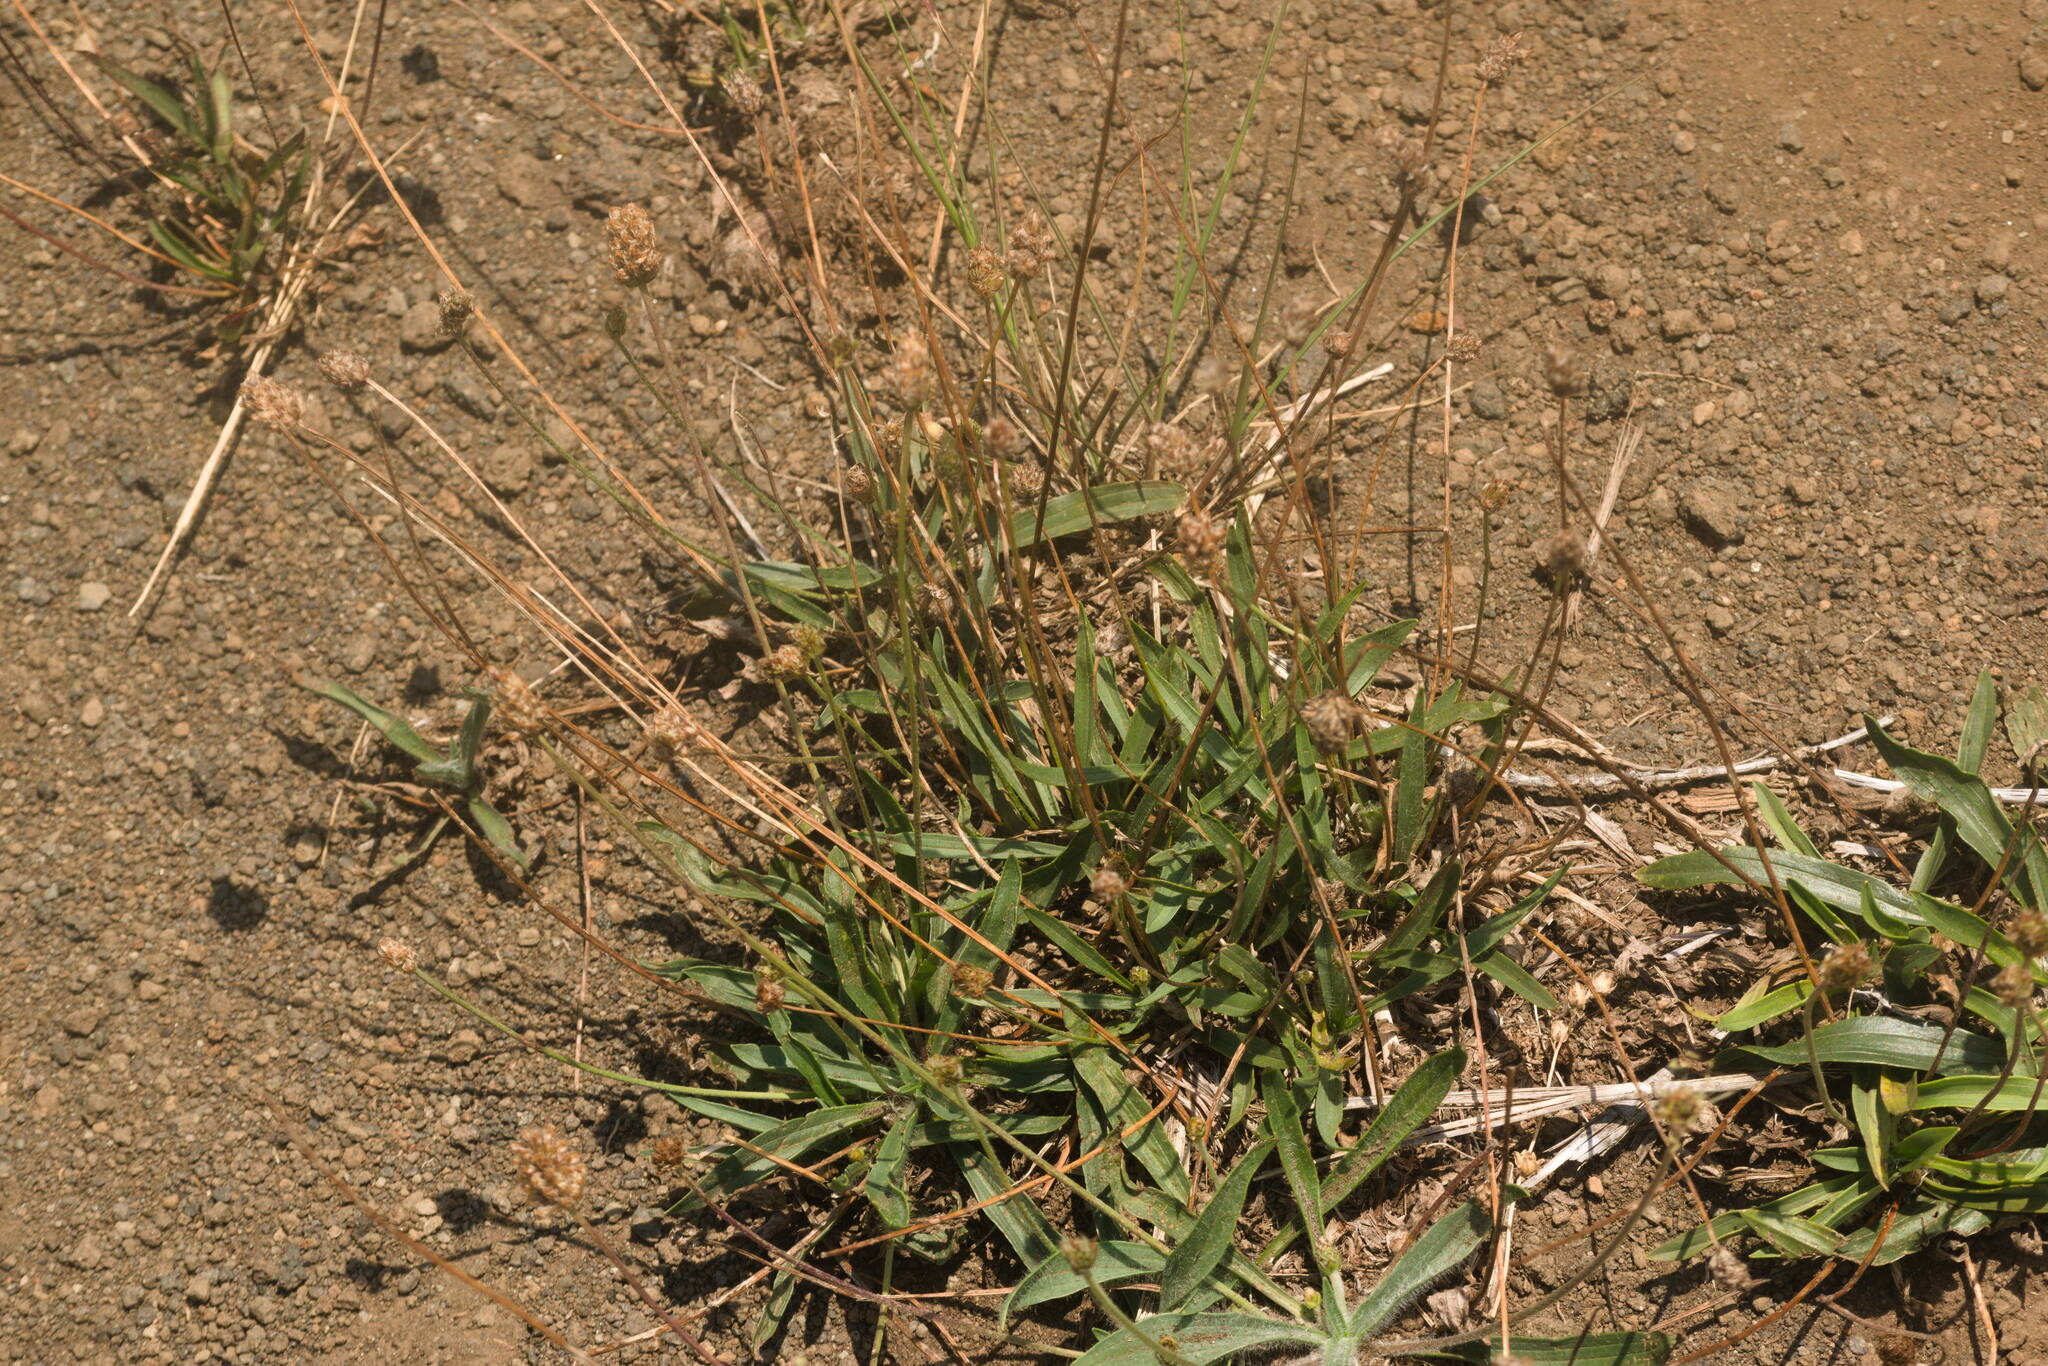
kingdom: Plantae
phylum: Tracheophyta
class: Magnoliopsida
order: Lamiales
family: Plantaginaceae
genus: Plantago
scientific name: Plantago lanceolata
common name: Ribwort plantain
